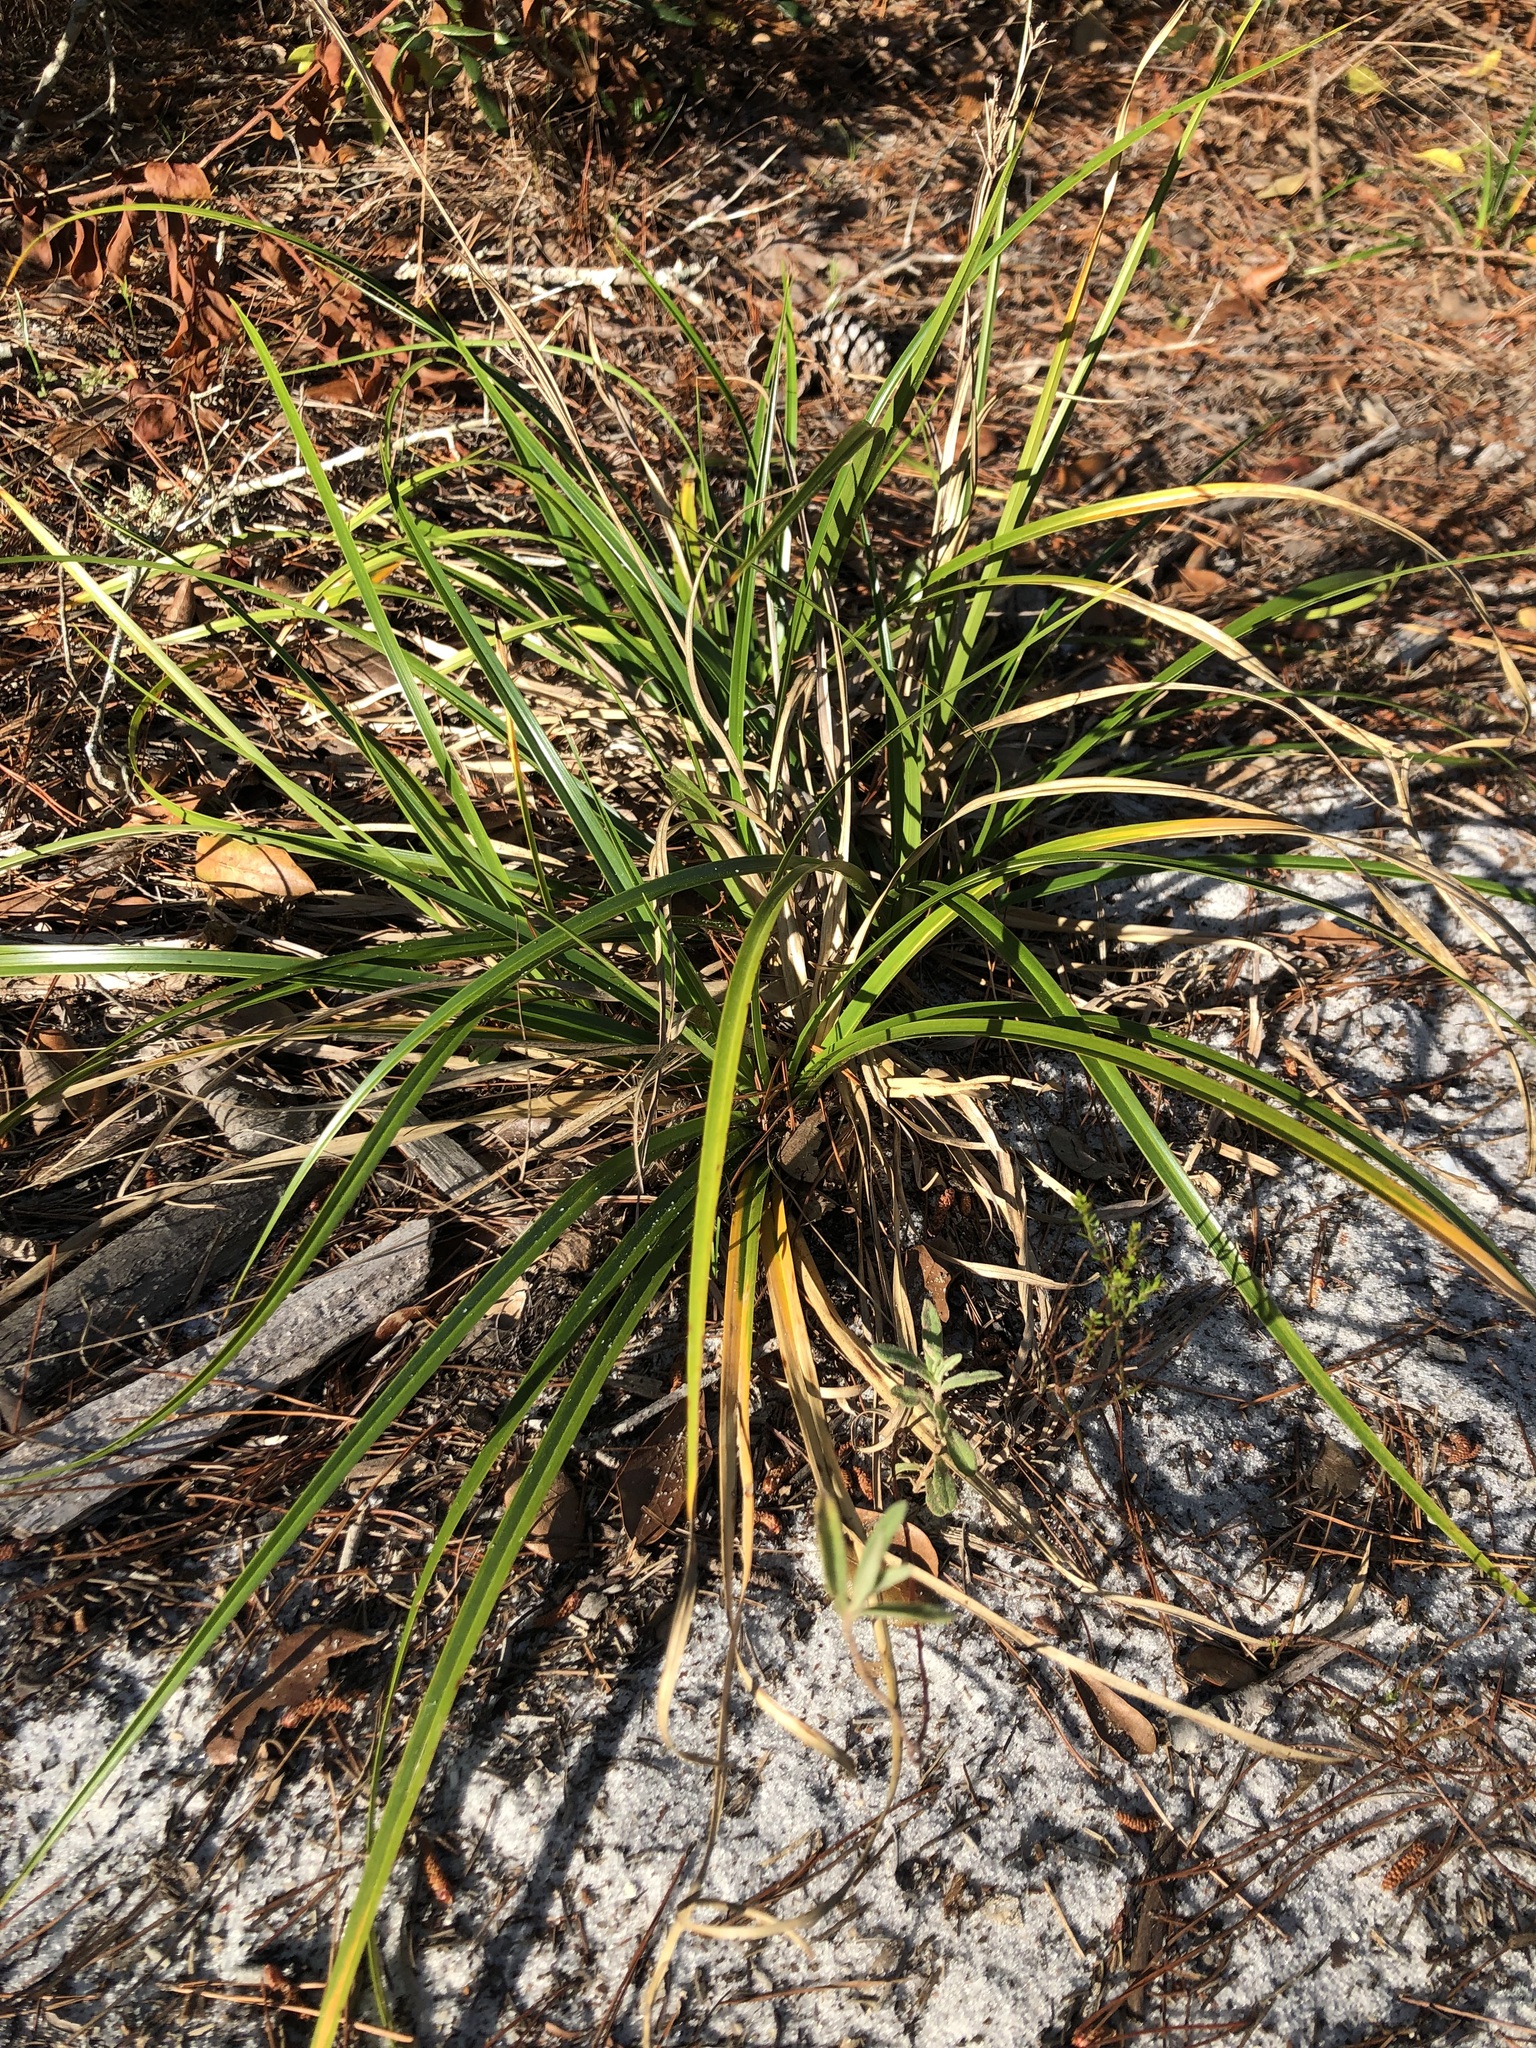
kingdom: Plantae
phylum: Tracheophyta
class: Liliopsida
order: Poales
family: Cyperaceae
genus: Rhynchospora
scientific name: Rhynchospora megalocarpa
